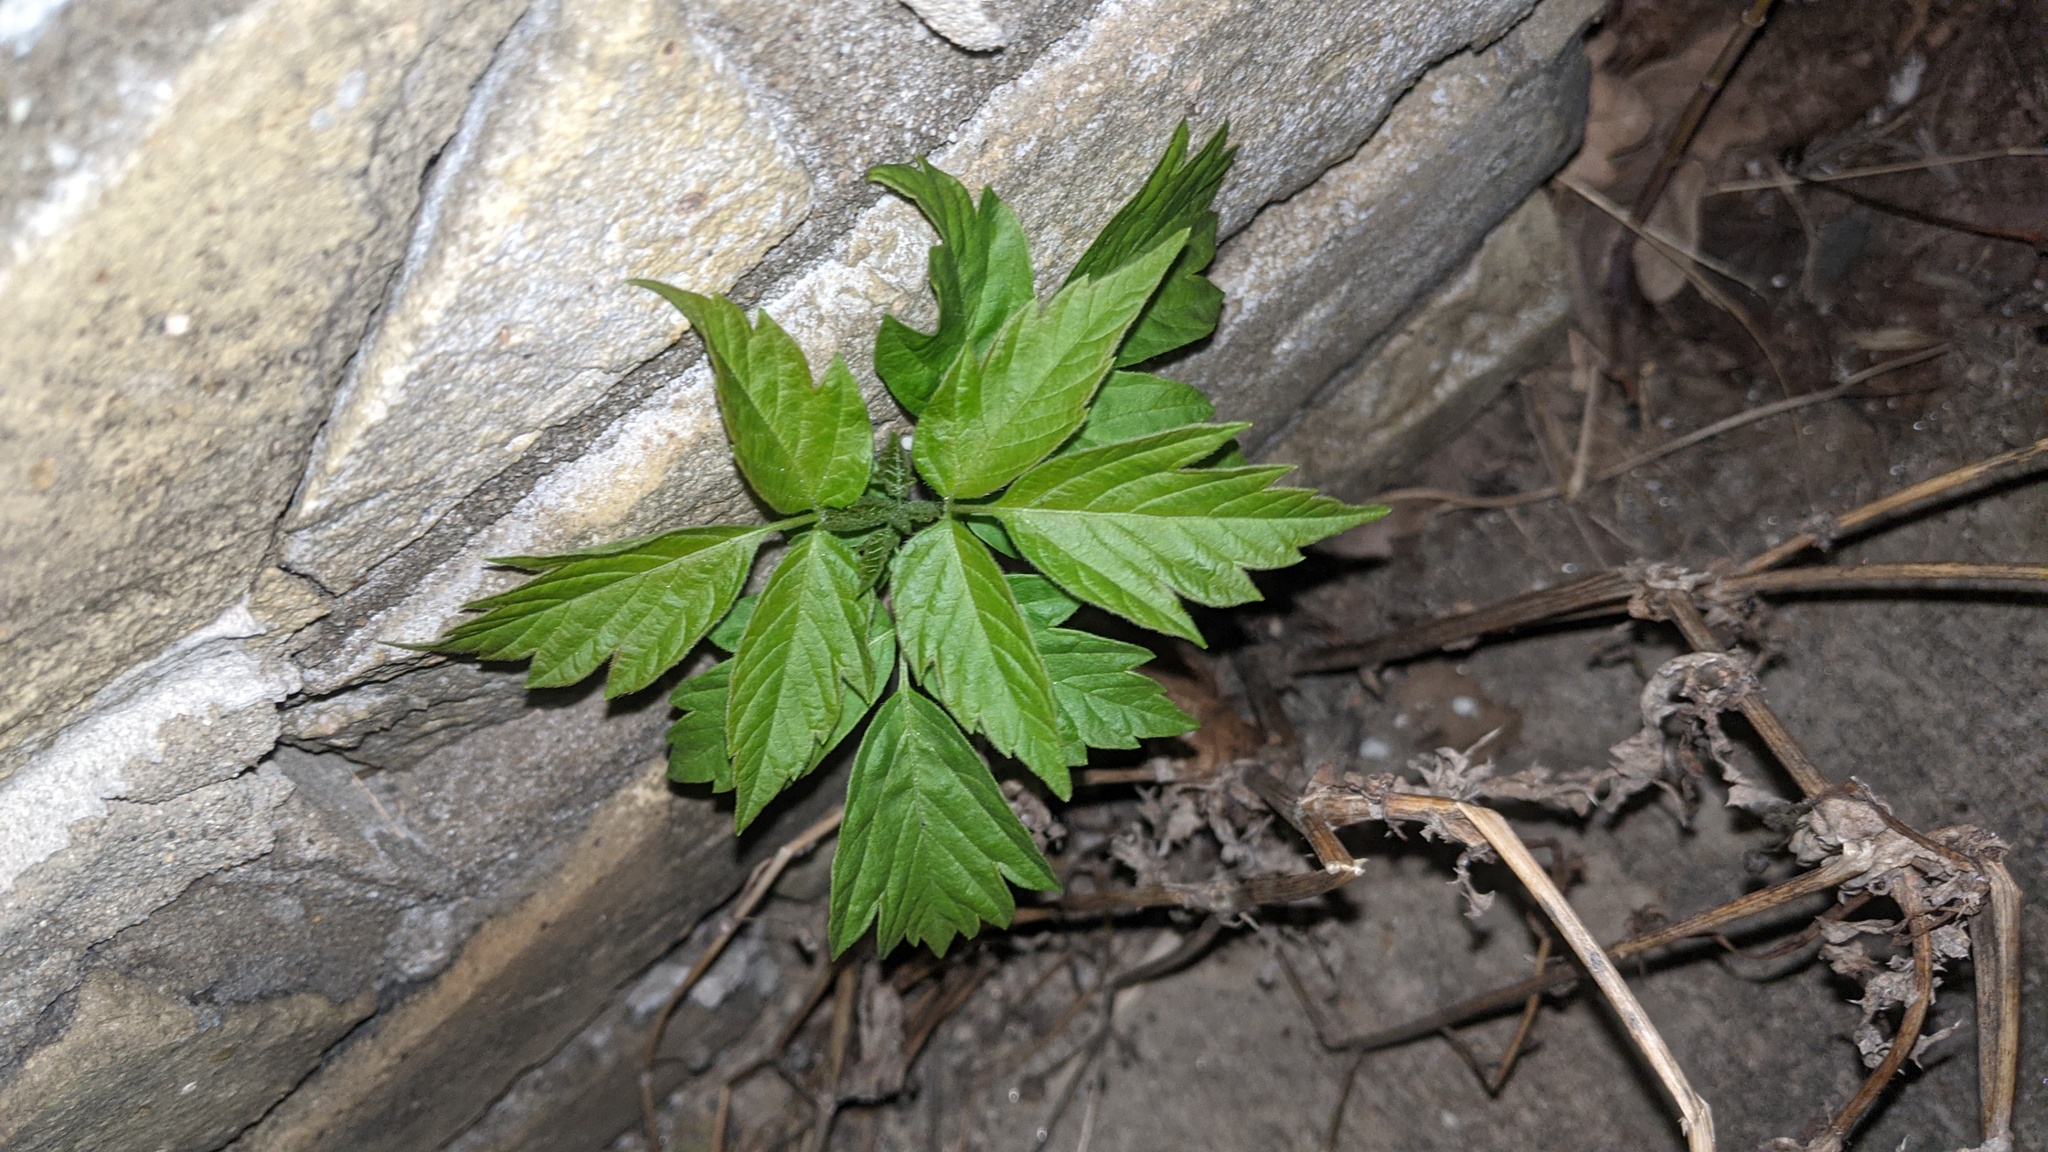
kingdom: Plantae
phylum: Tracheophyta
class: Magnoliopsida
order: Sapindales
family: Sapindaceae
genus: Acer
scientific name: Acer negundo
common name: Ashleaf maple
